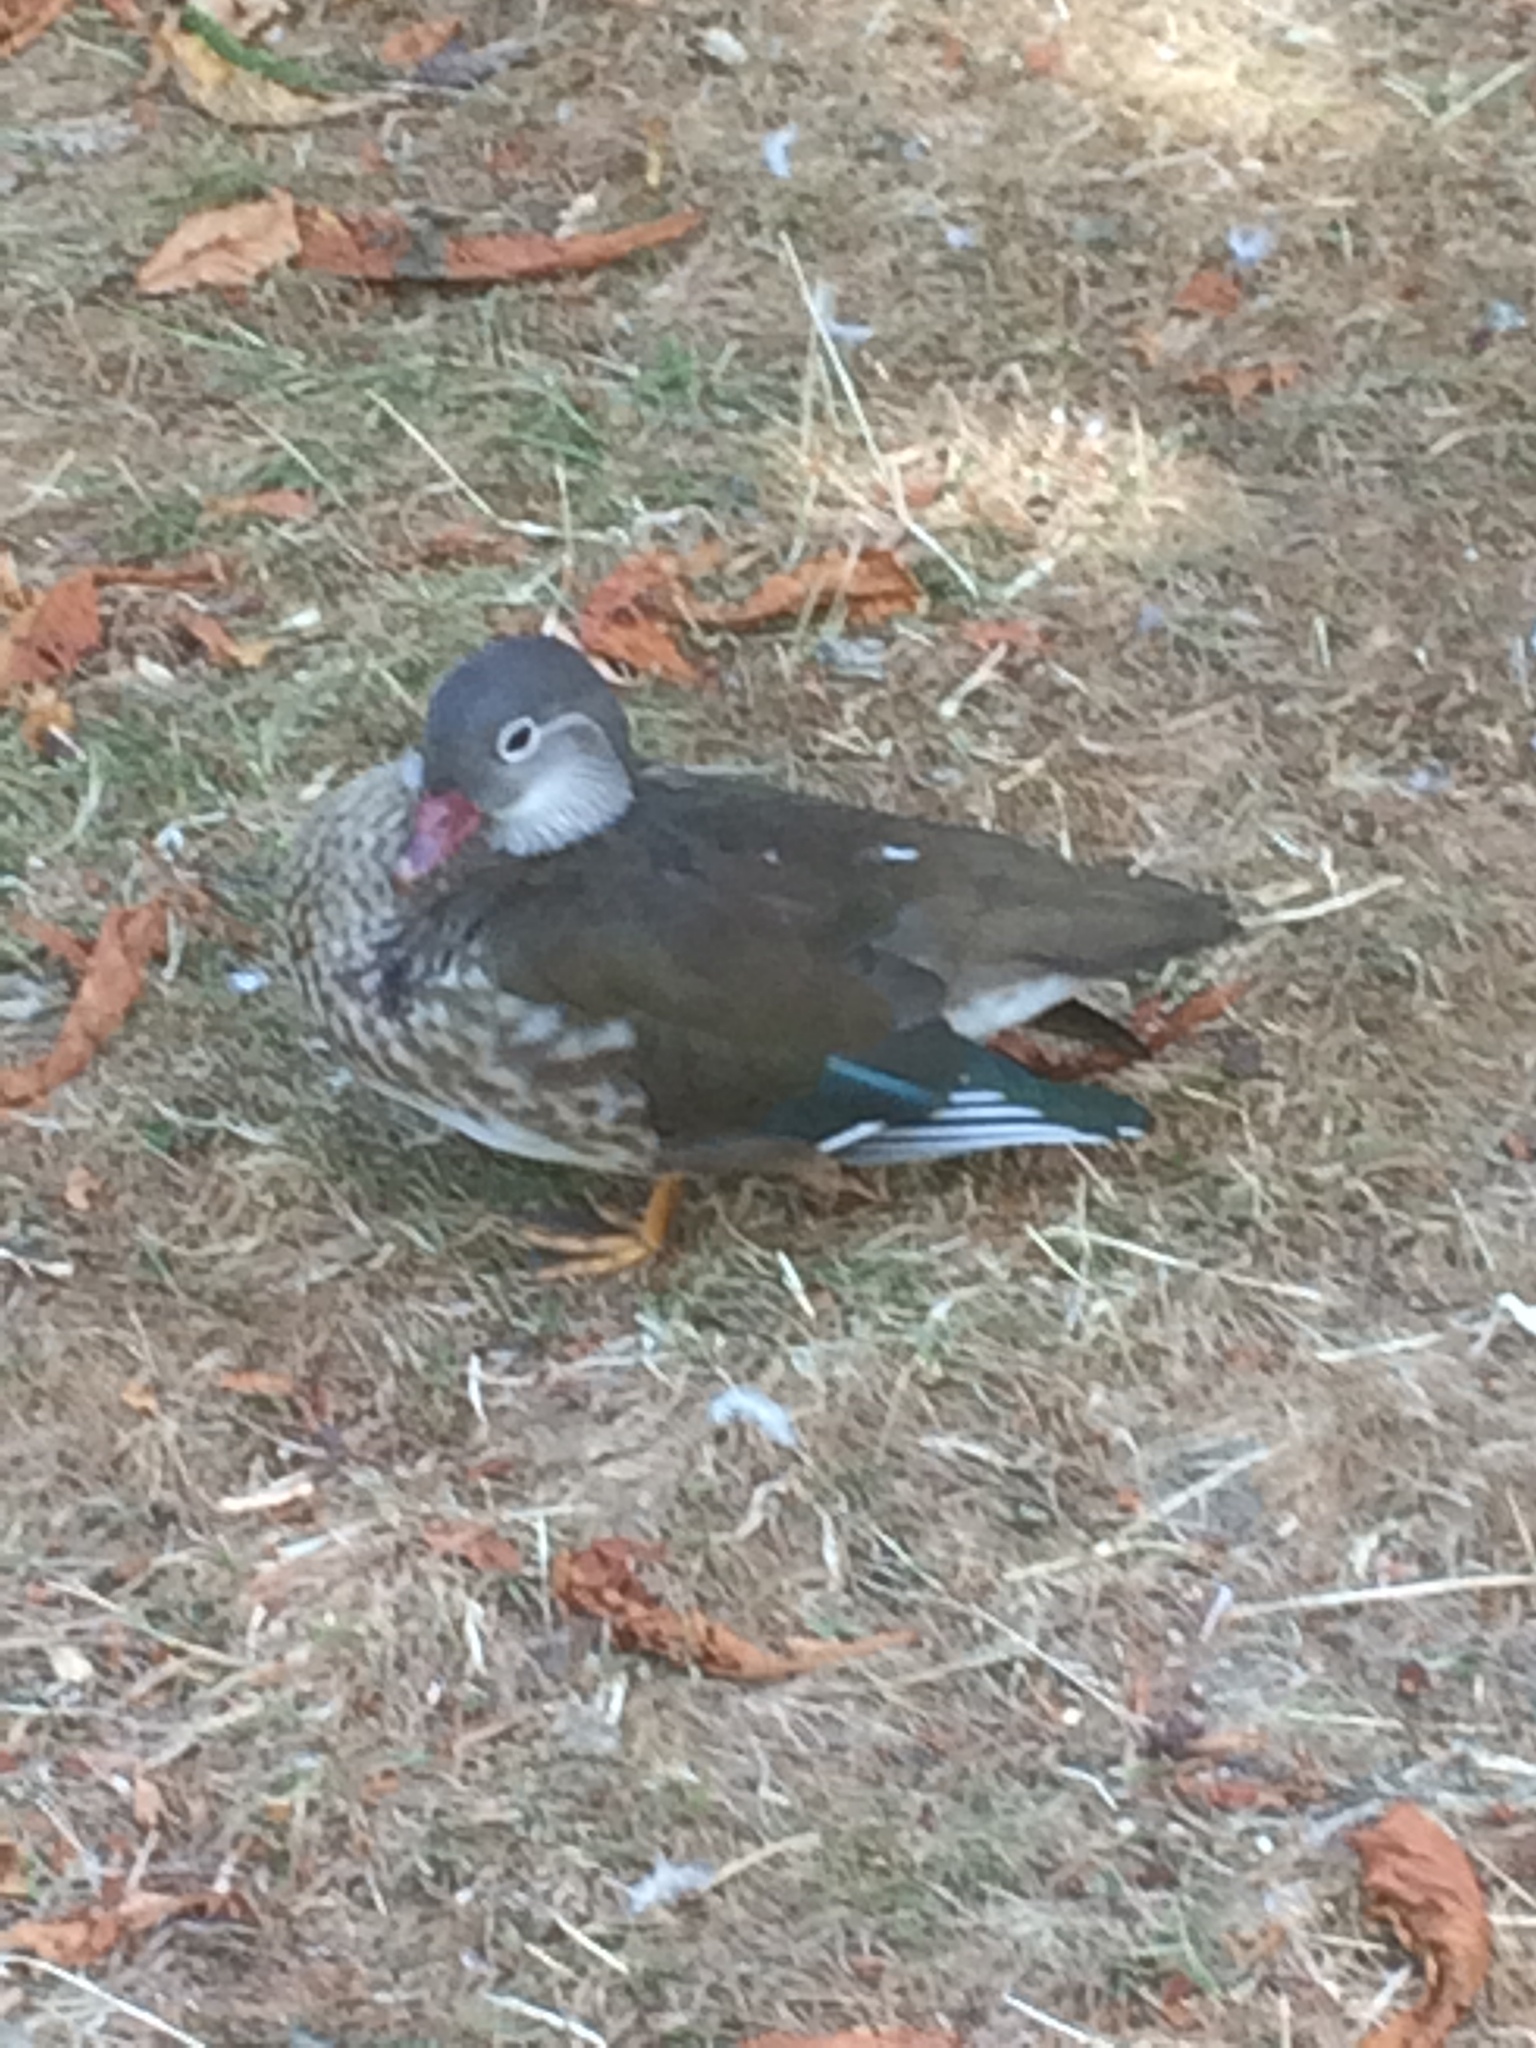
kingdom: Animalia
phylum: Chordata
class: Aves
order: Anseriformes
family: Anatidae
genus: Aix
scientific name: Aix galericulata
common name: Mandarin duck
